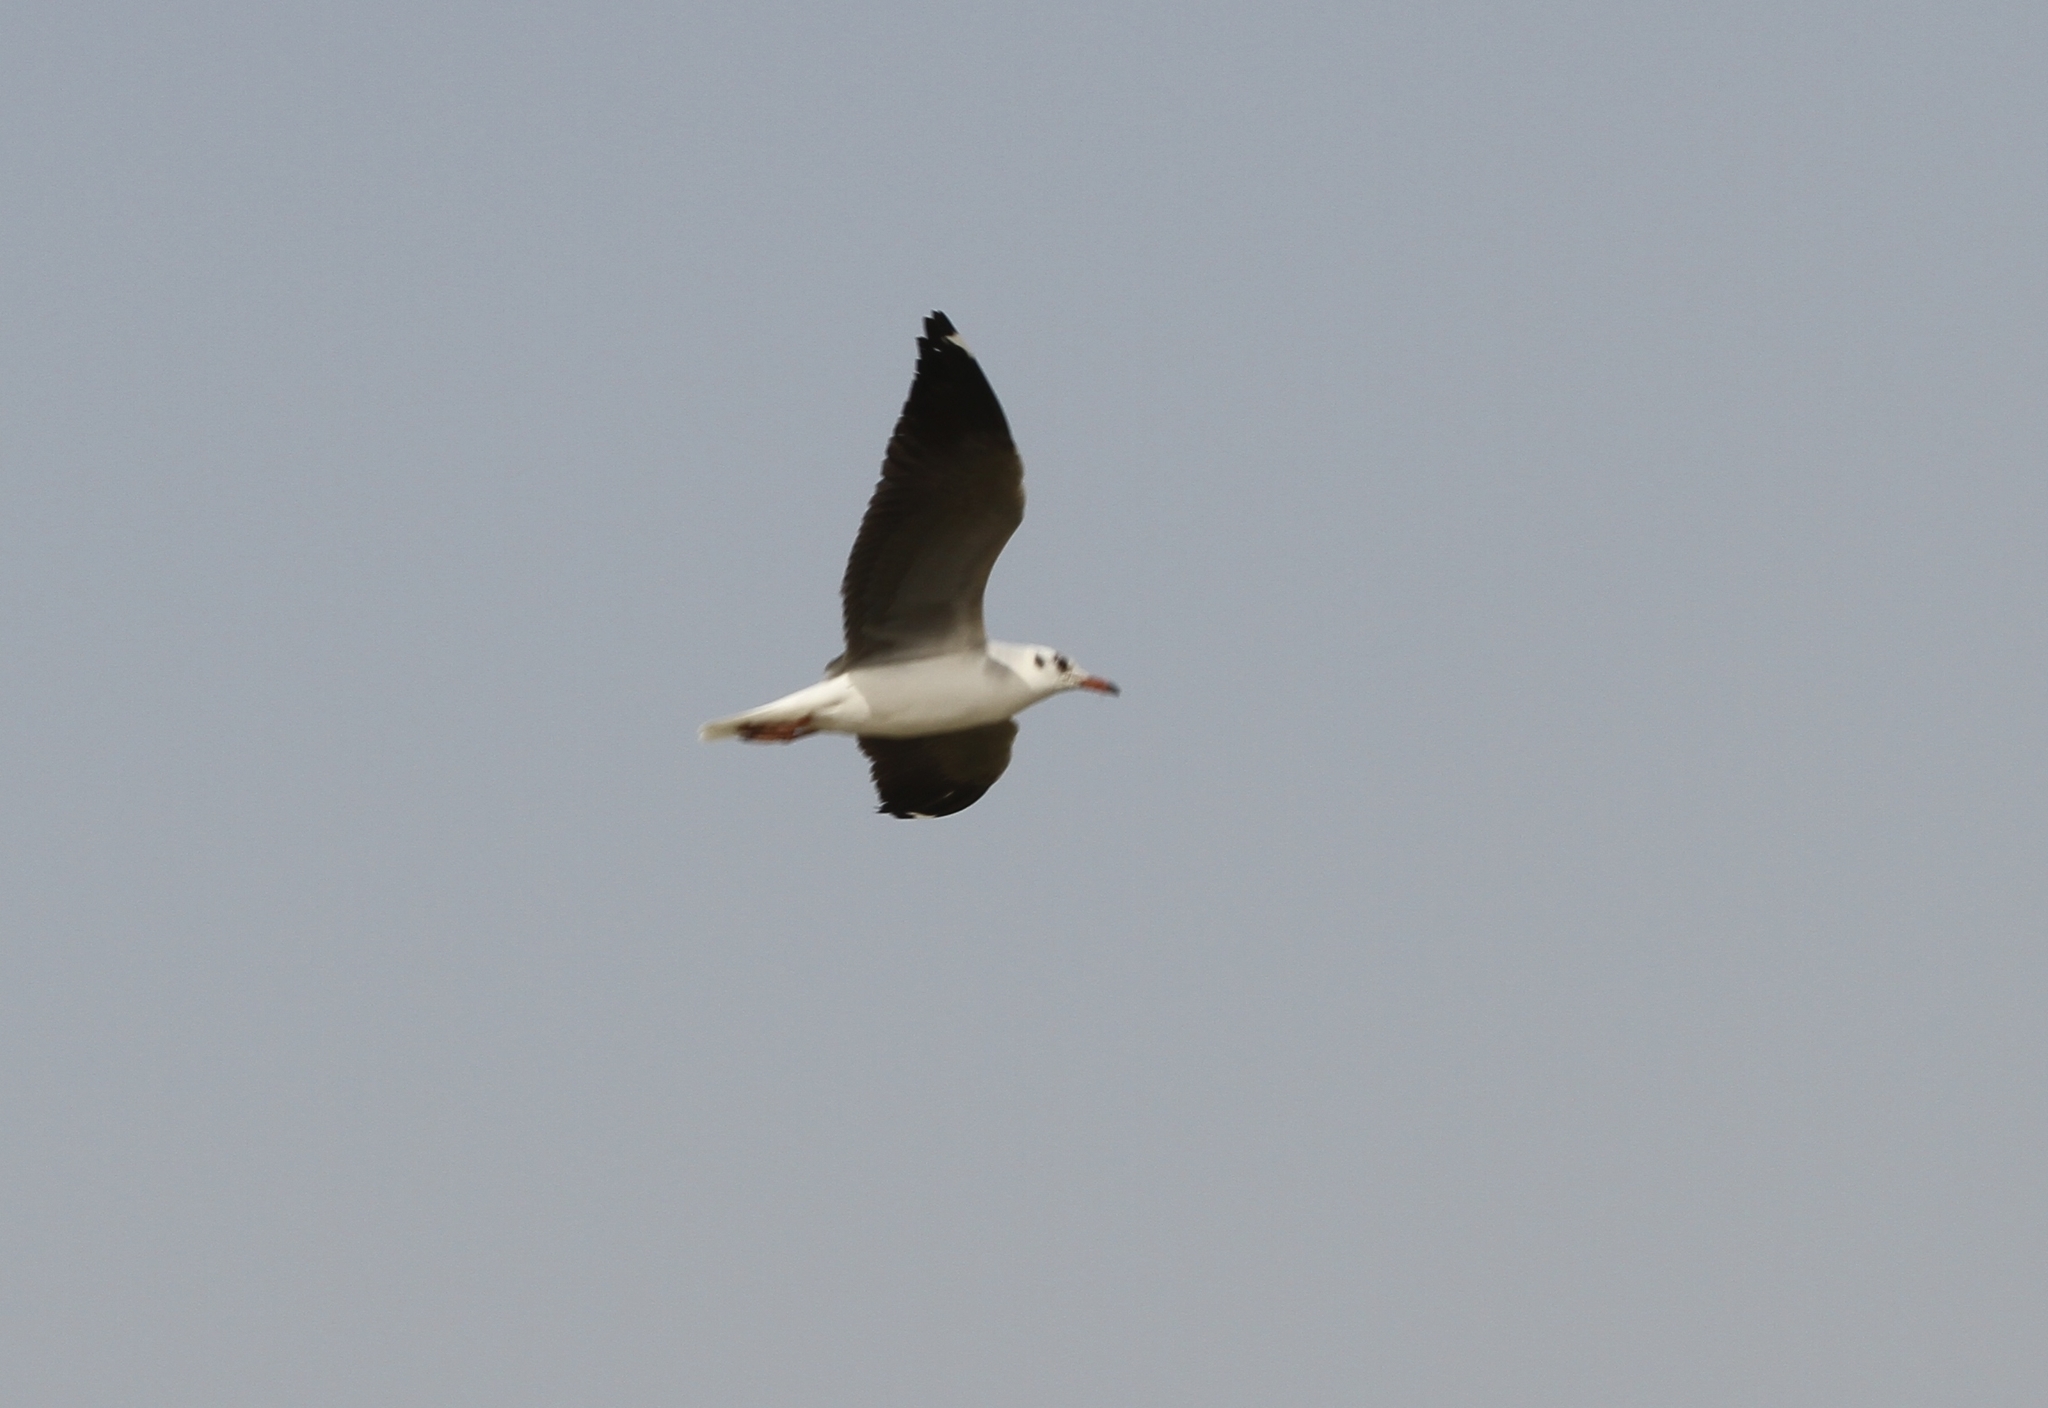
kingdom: Animalia
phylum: Chordata
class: Aves
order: Charadriiformes
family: Laridae
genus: Chroicocephalus
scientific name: Chroicocephalus ridibundus
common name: Black-headed gull
